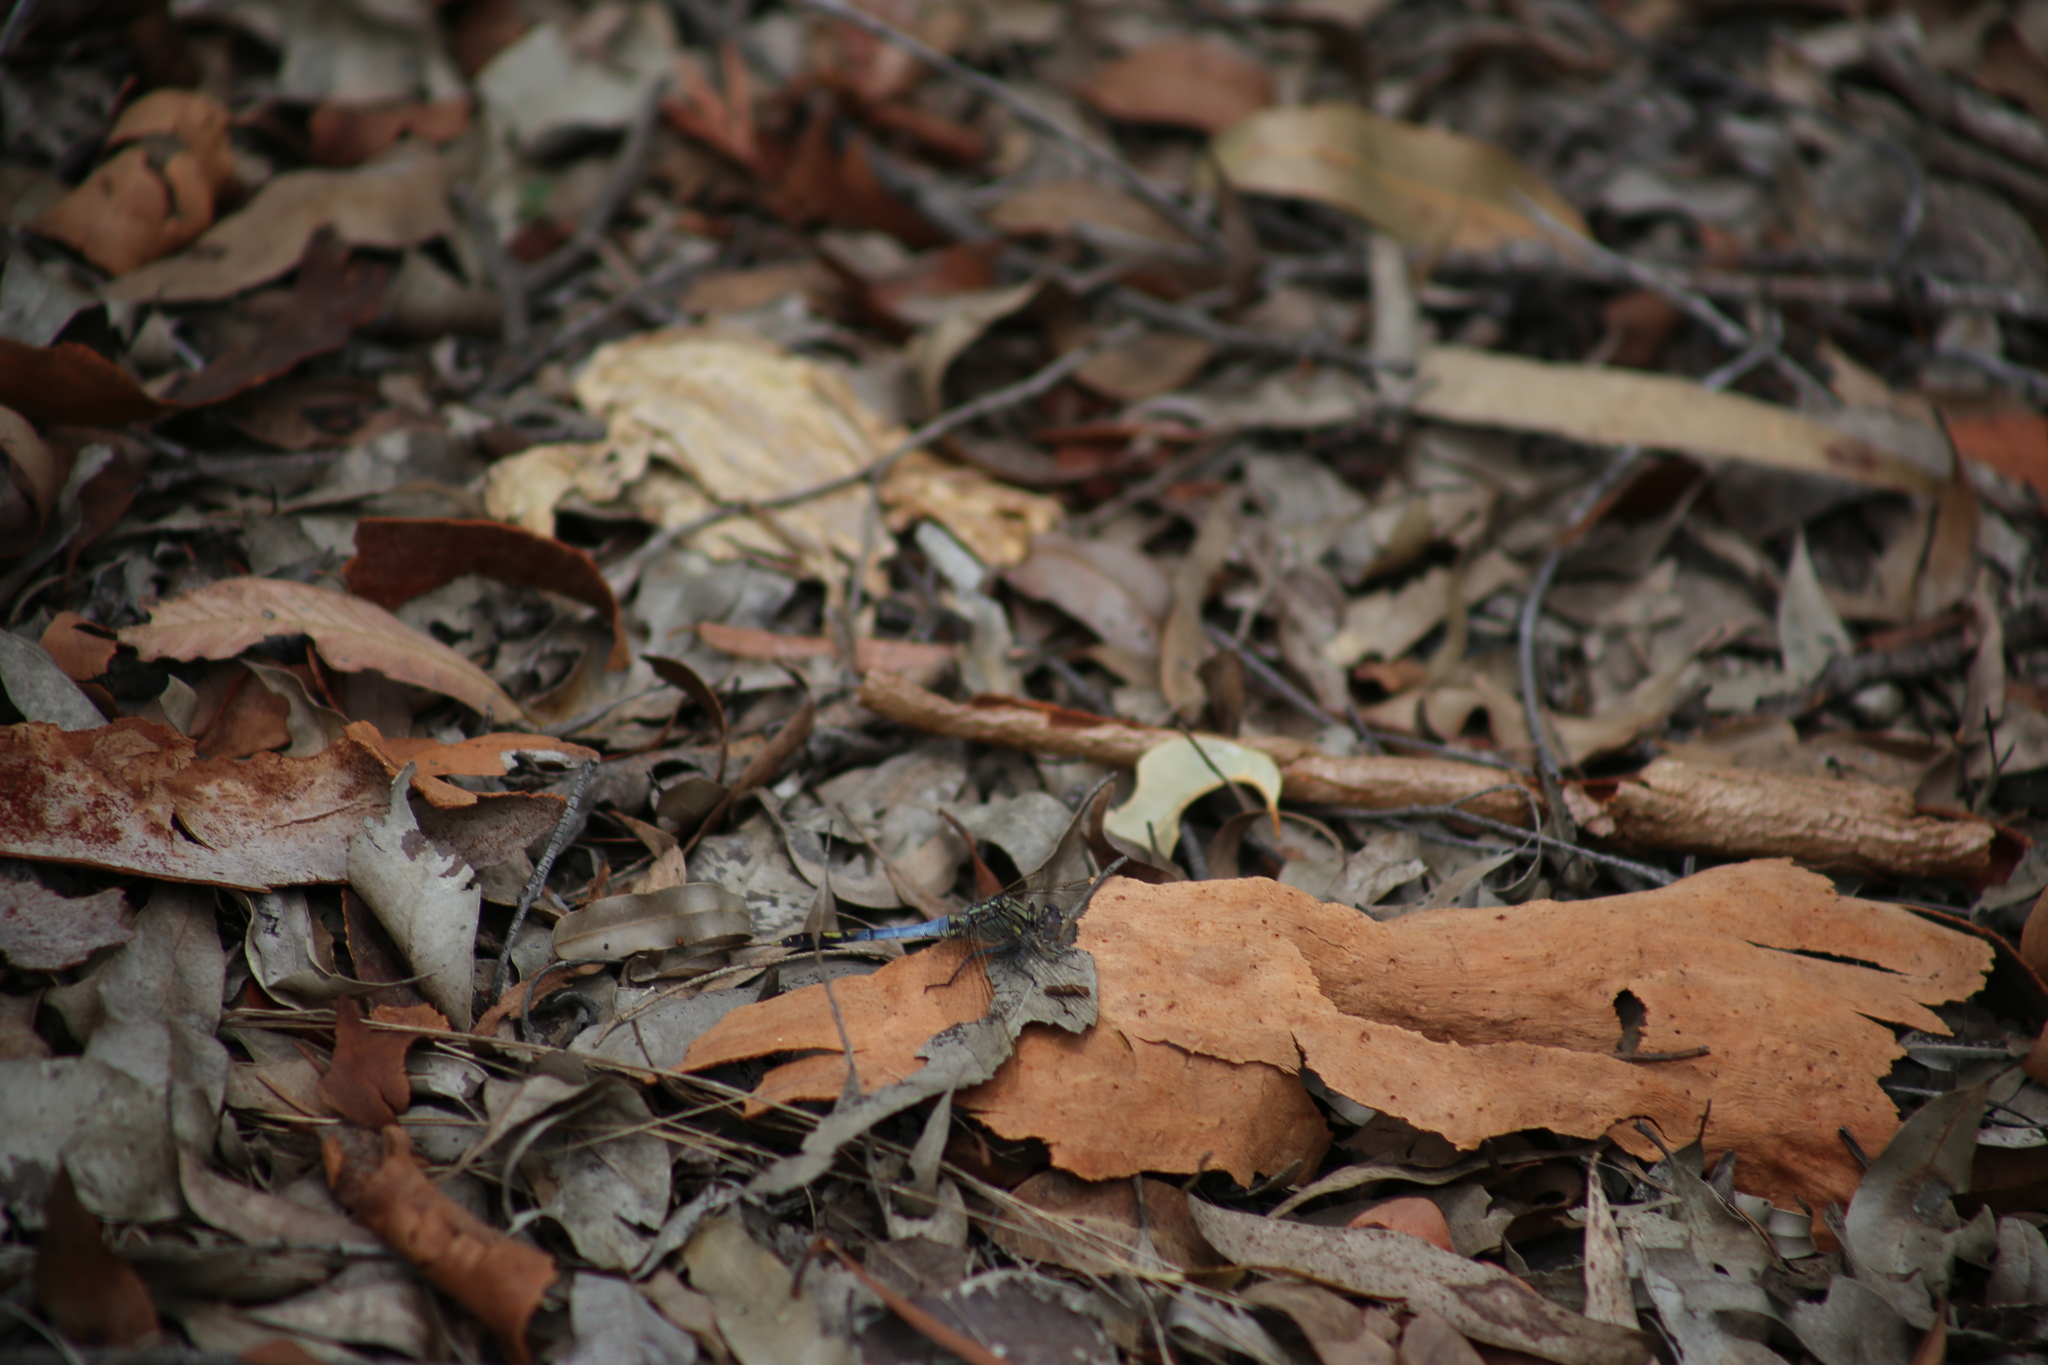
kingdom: Animalia
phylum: Arthropoda
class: Insecta
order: Odonata
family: Libellulidae
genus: Orthetrum
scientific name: Orthetrum caledonicum
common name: Blue skimmer
